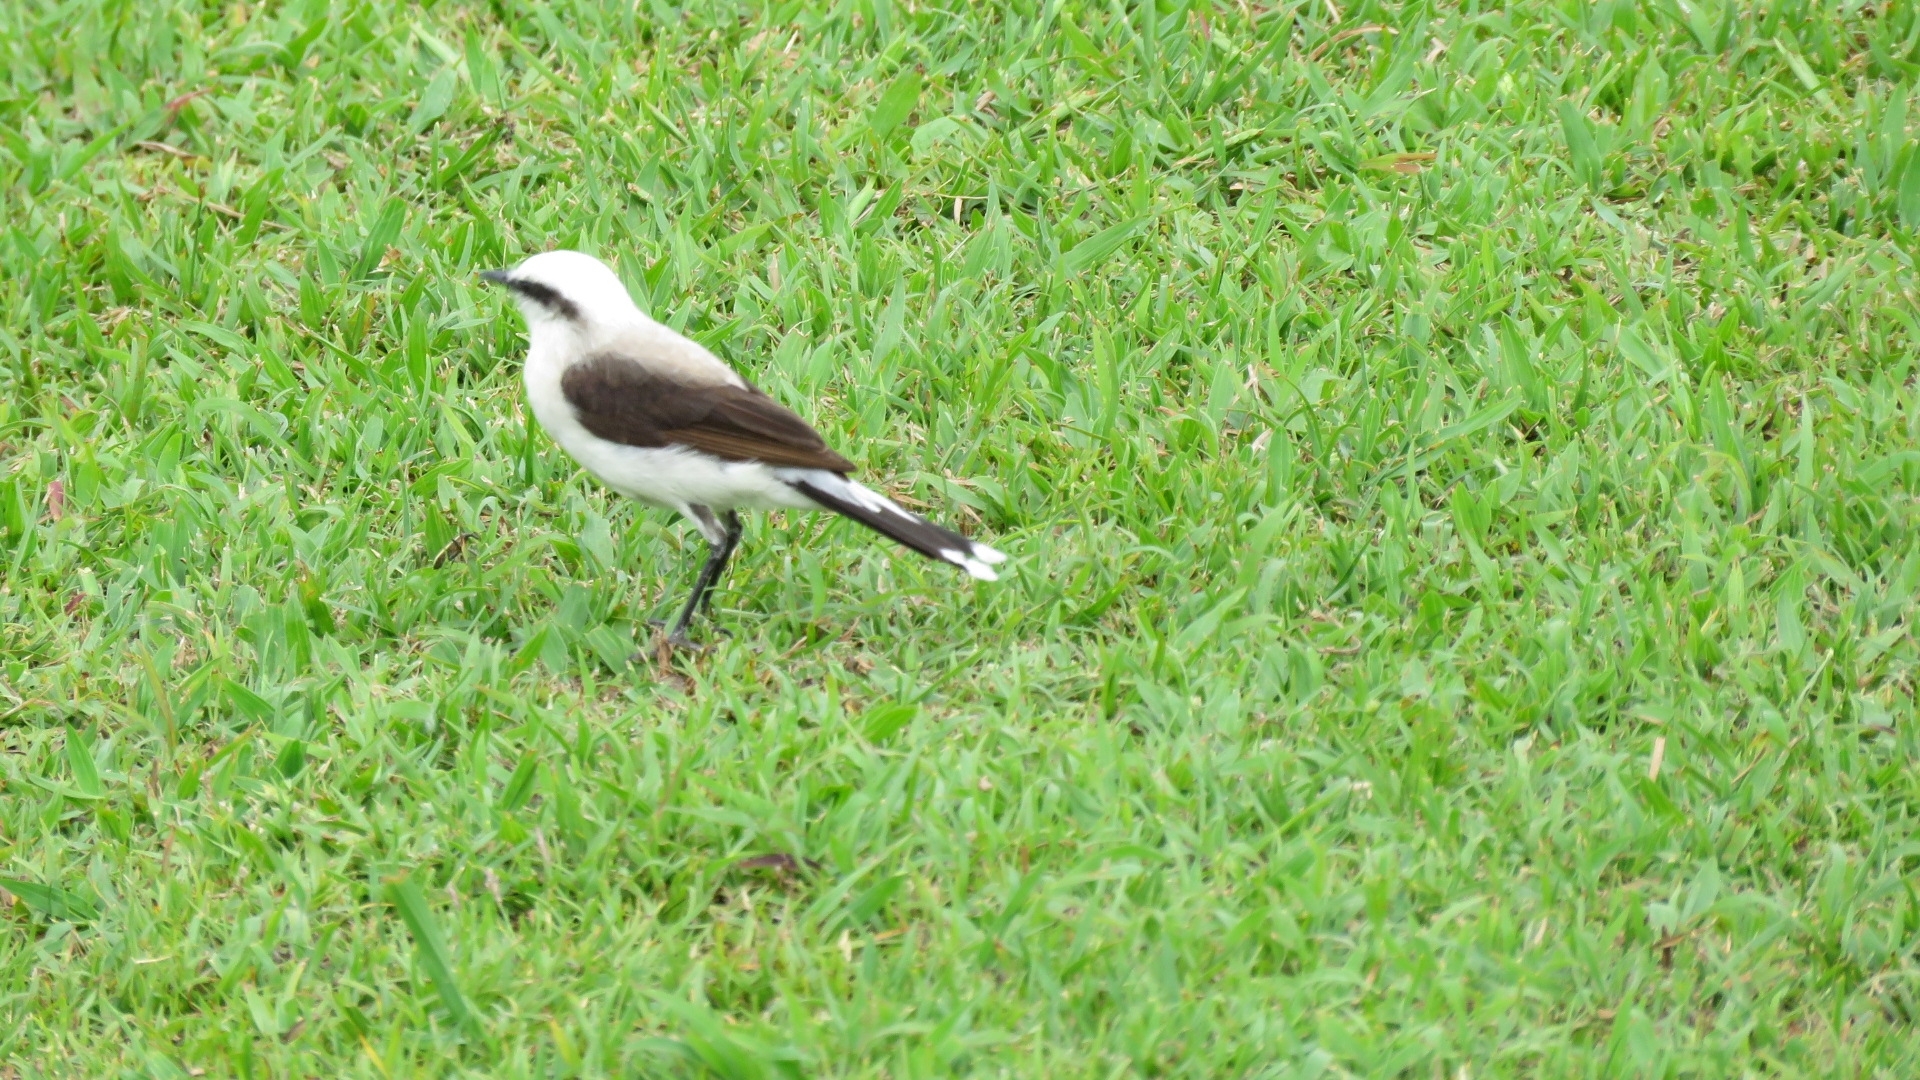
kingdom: Animalia
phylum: Chordata
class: Aves
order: Passeriformes
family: Tyrannidae
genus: Fluvicola
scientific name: Fluvicola nengeta
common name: Masked water tyrant
